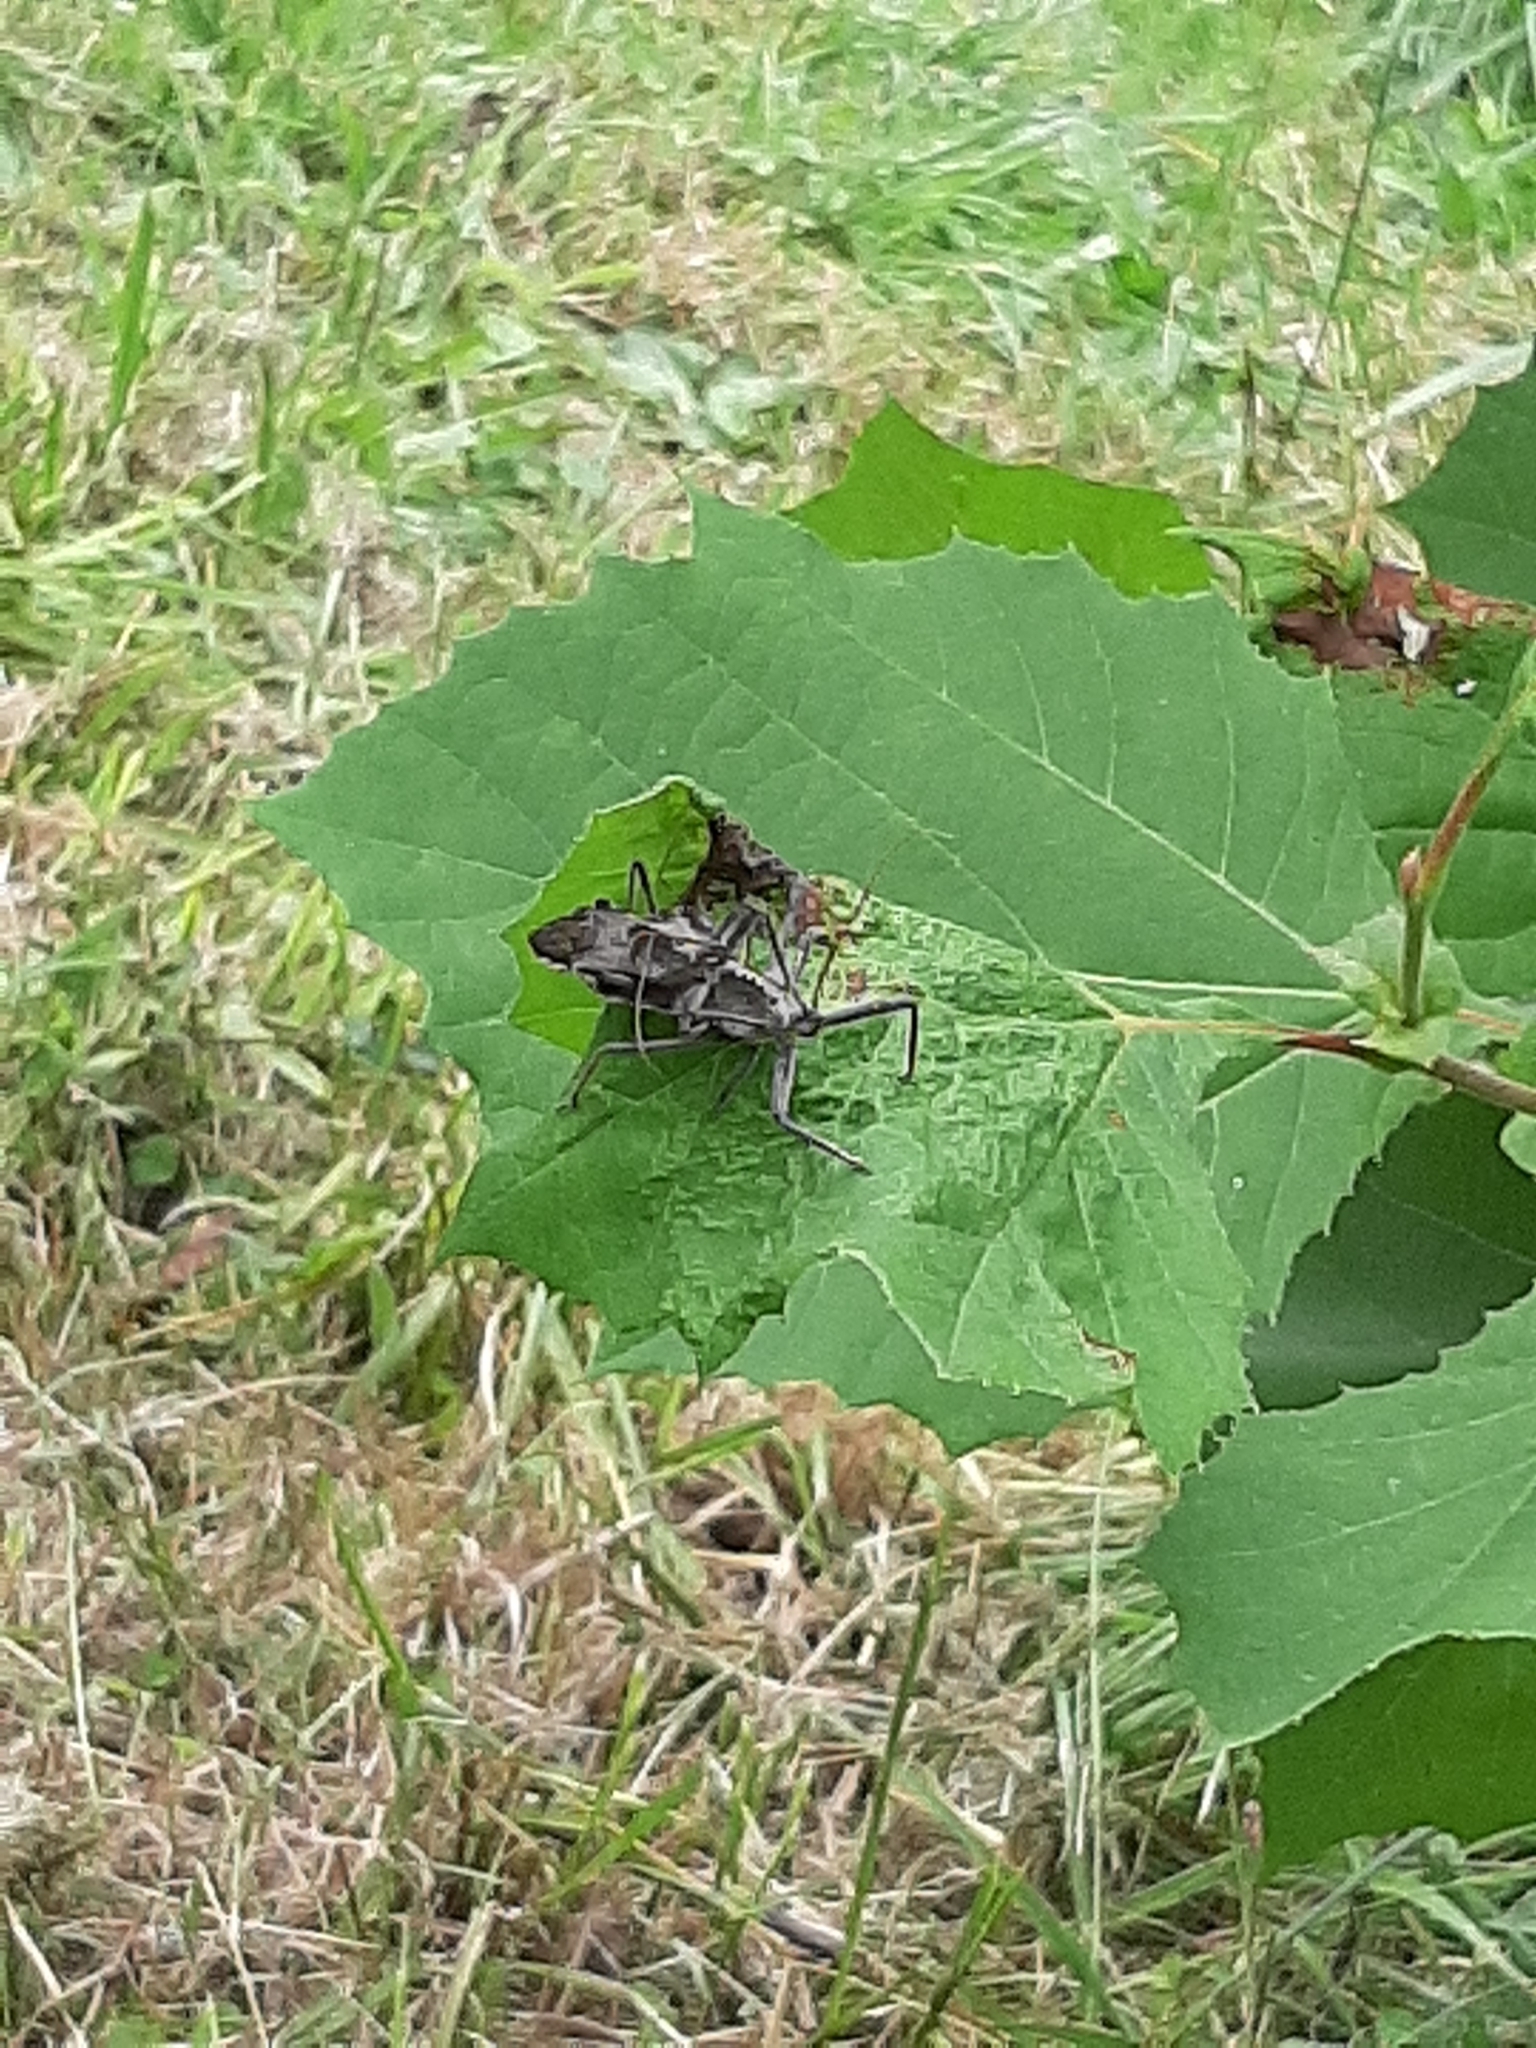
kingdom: Animalia
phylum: Arthropoda
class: Insecta
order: Hemiptera
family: Reduviidae
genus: Arilus
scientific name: Arilus cristatus
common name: North american wheel bug
